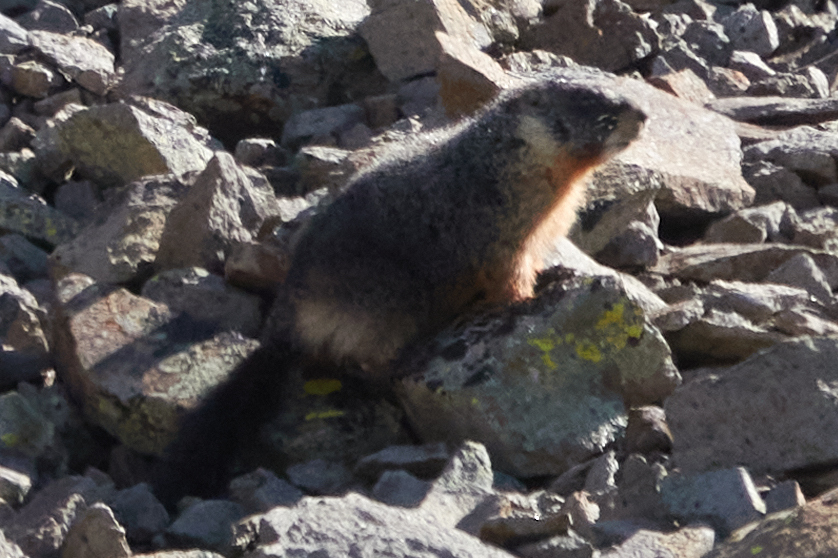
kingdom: Animalia
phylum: Chordata
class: Mammalia
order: Rodentia
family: Sciuridae
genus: Marmota
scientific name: Marmota flaviventris
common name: Yellow-bellied marmot
